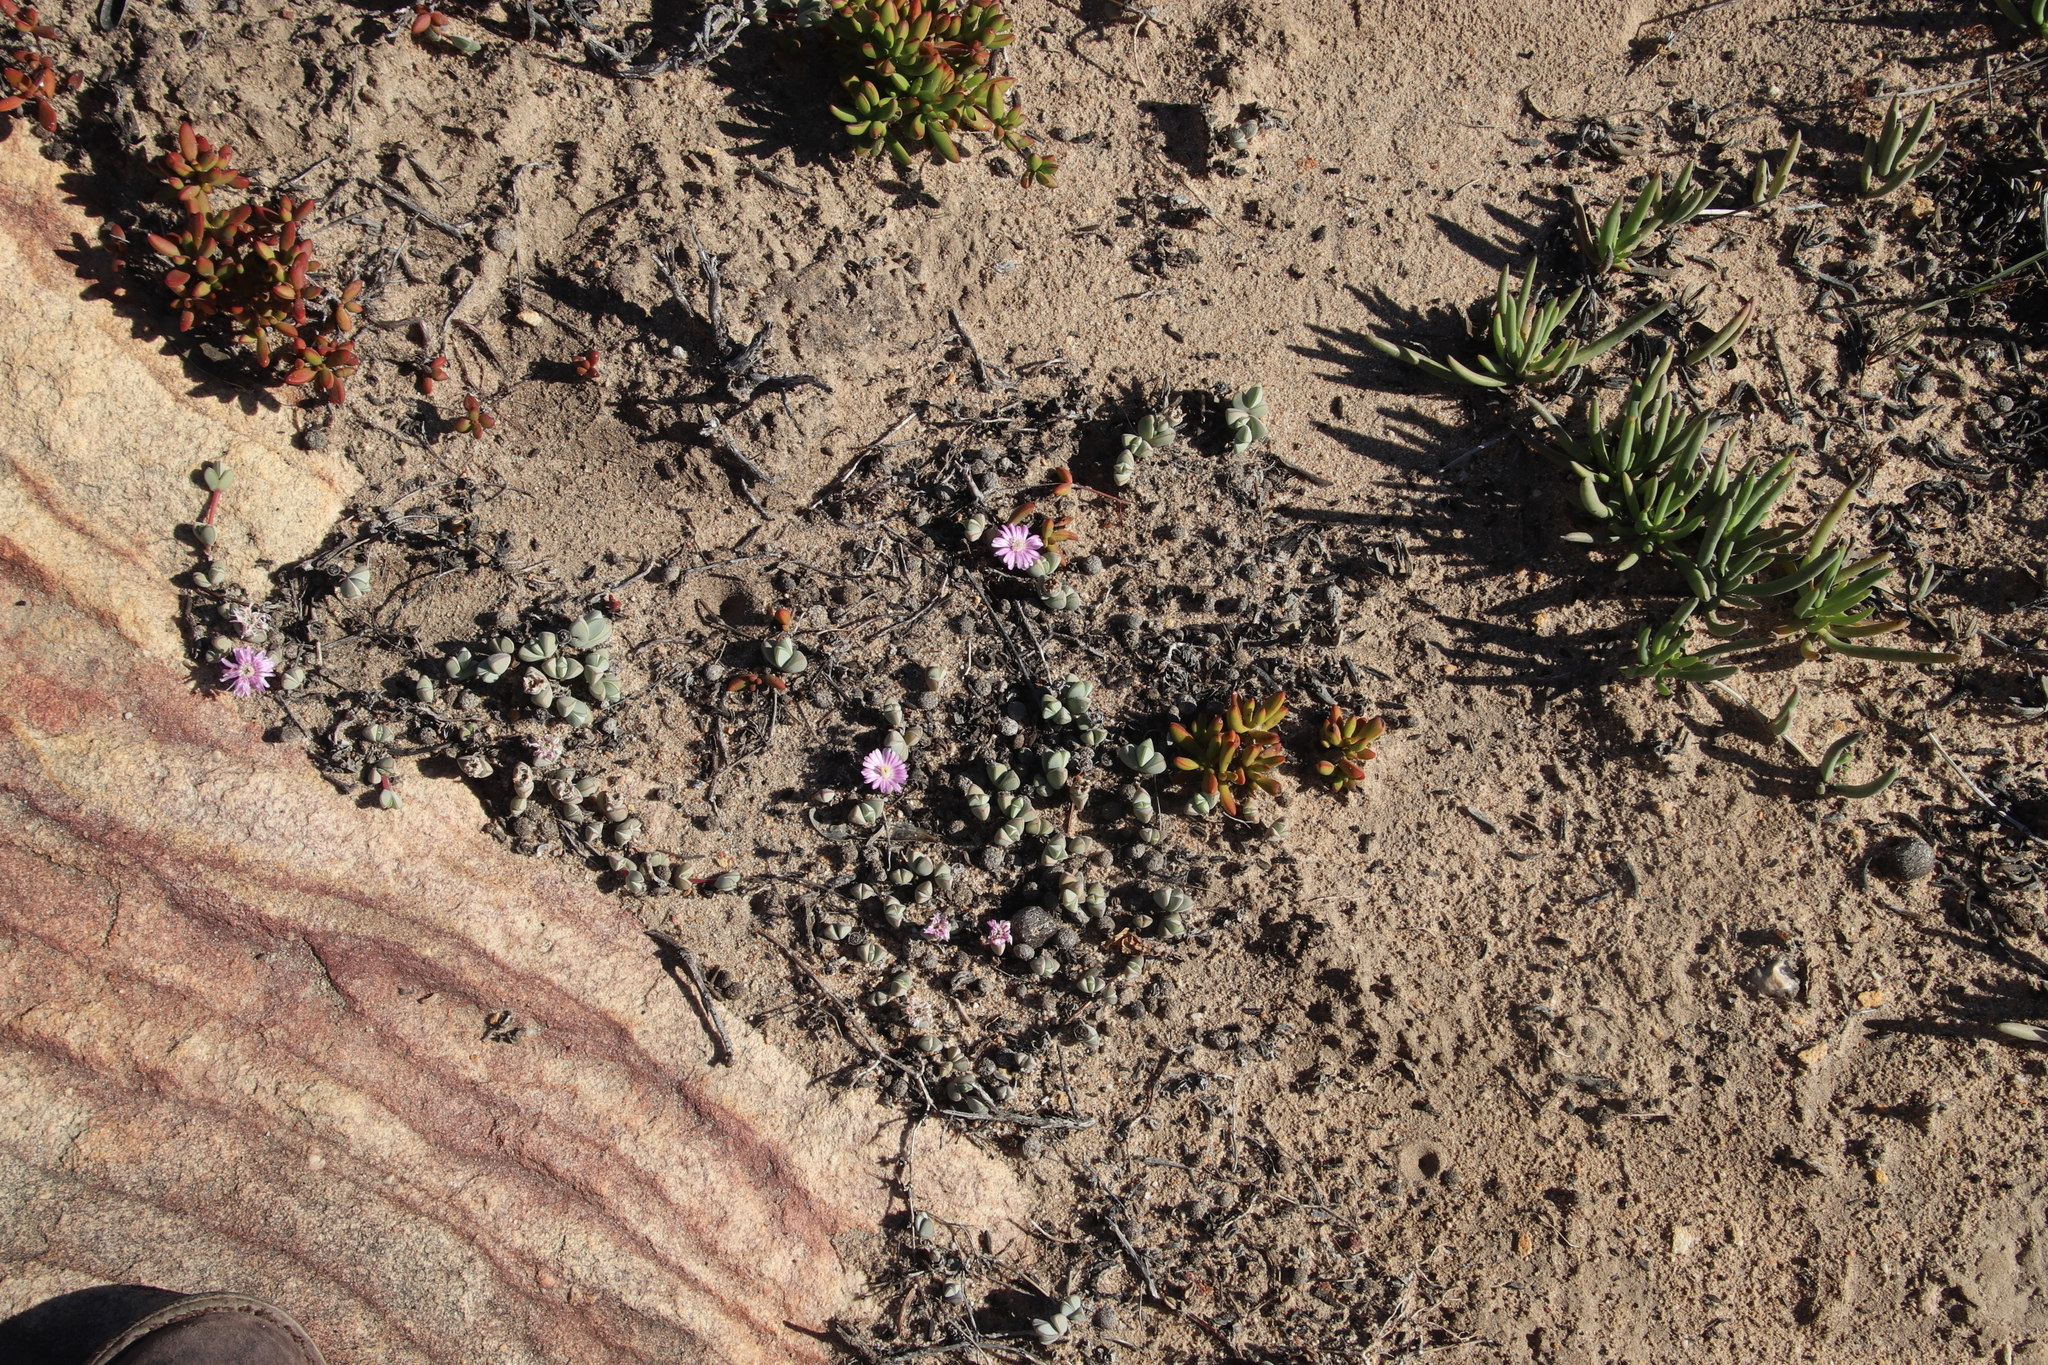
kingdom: Plantae
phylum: Tracheophyta
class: Magnoliopsida
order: Caryophyllales
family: Aizoaceae
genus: Braunsia
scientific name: Braunsia maximiliani
